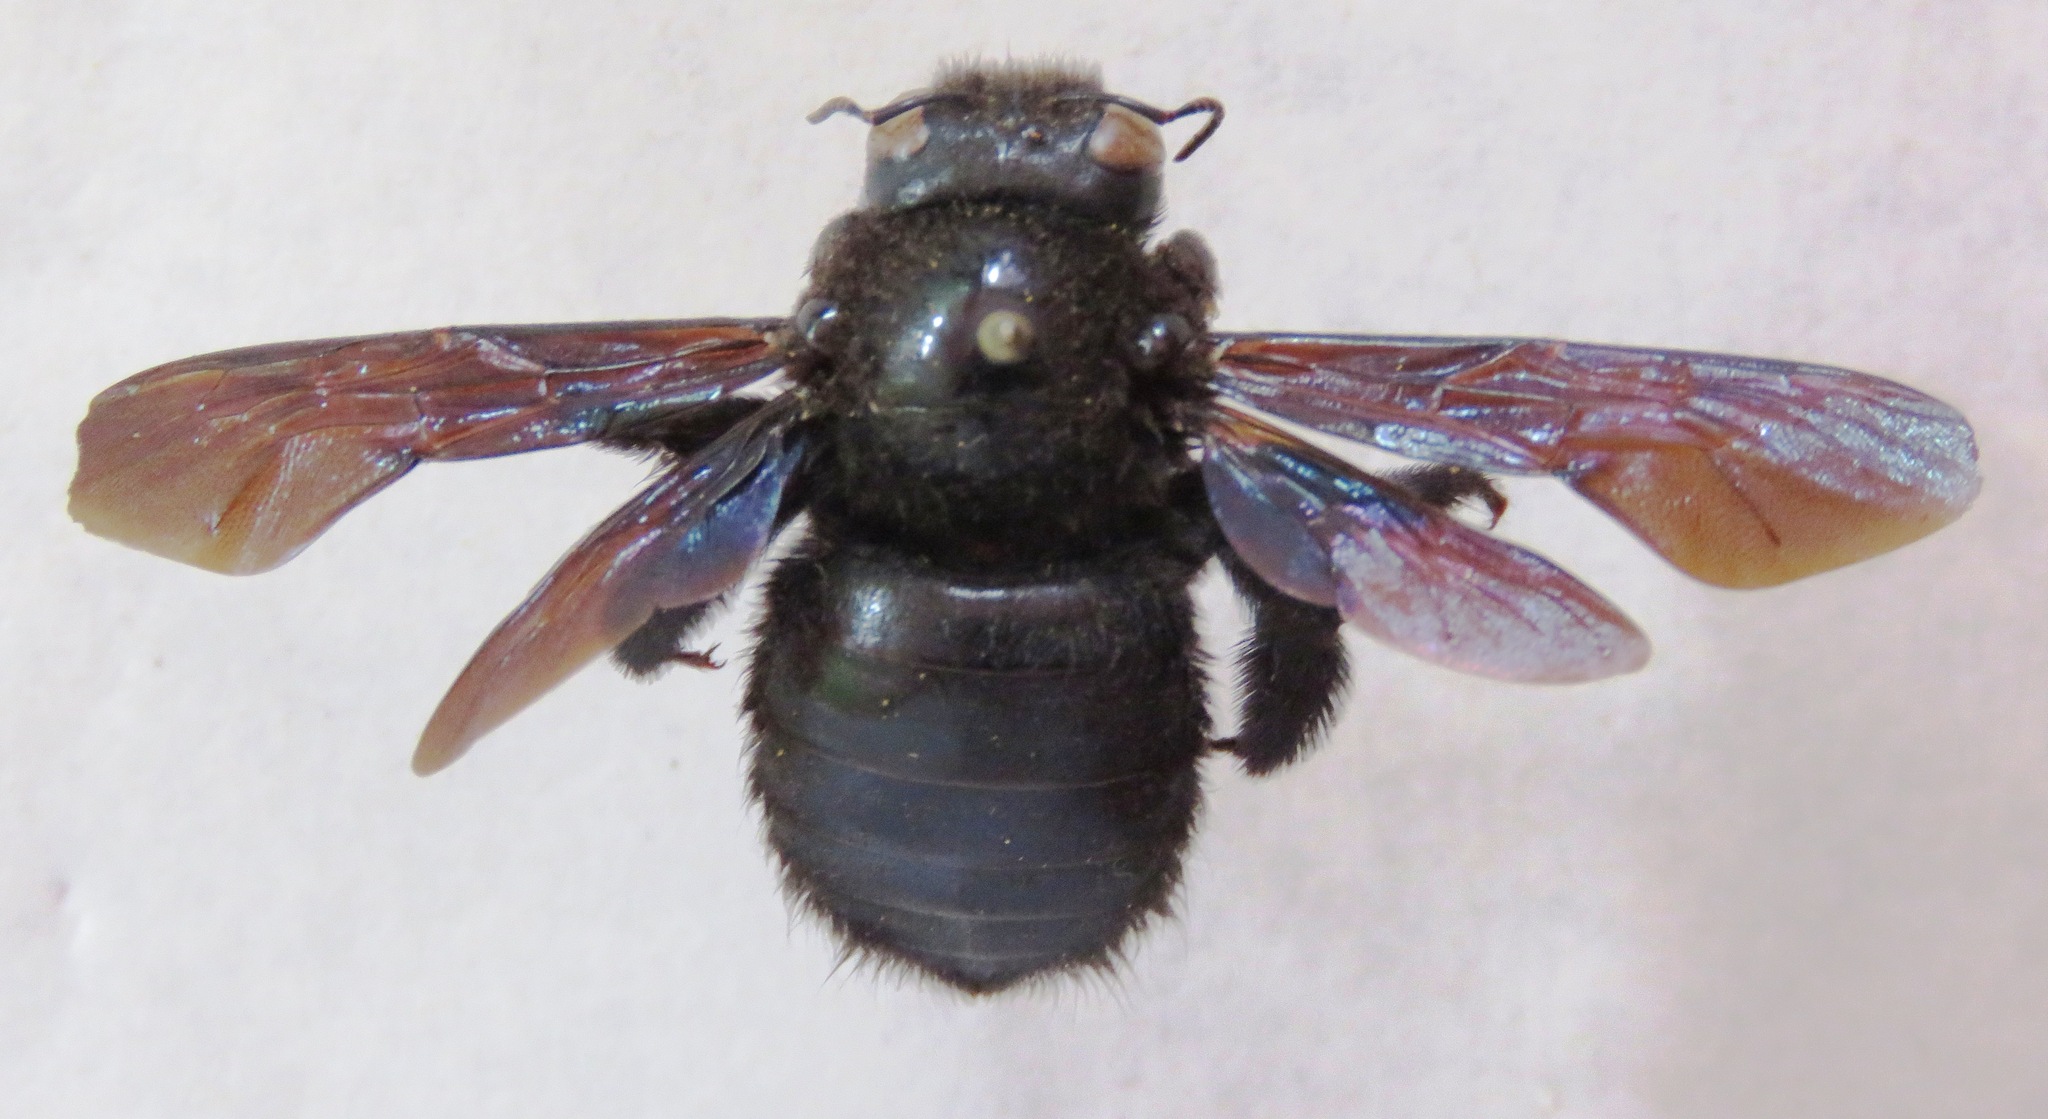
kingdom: Animalia
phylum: Arthropoda
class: Insecta
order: Hymenoptera
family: Apidae
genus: Xylocopa
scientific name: Xylocopa gualanensis
